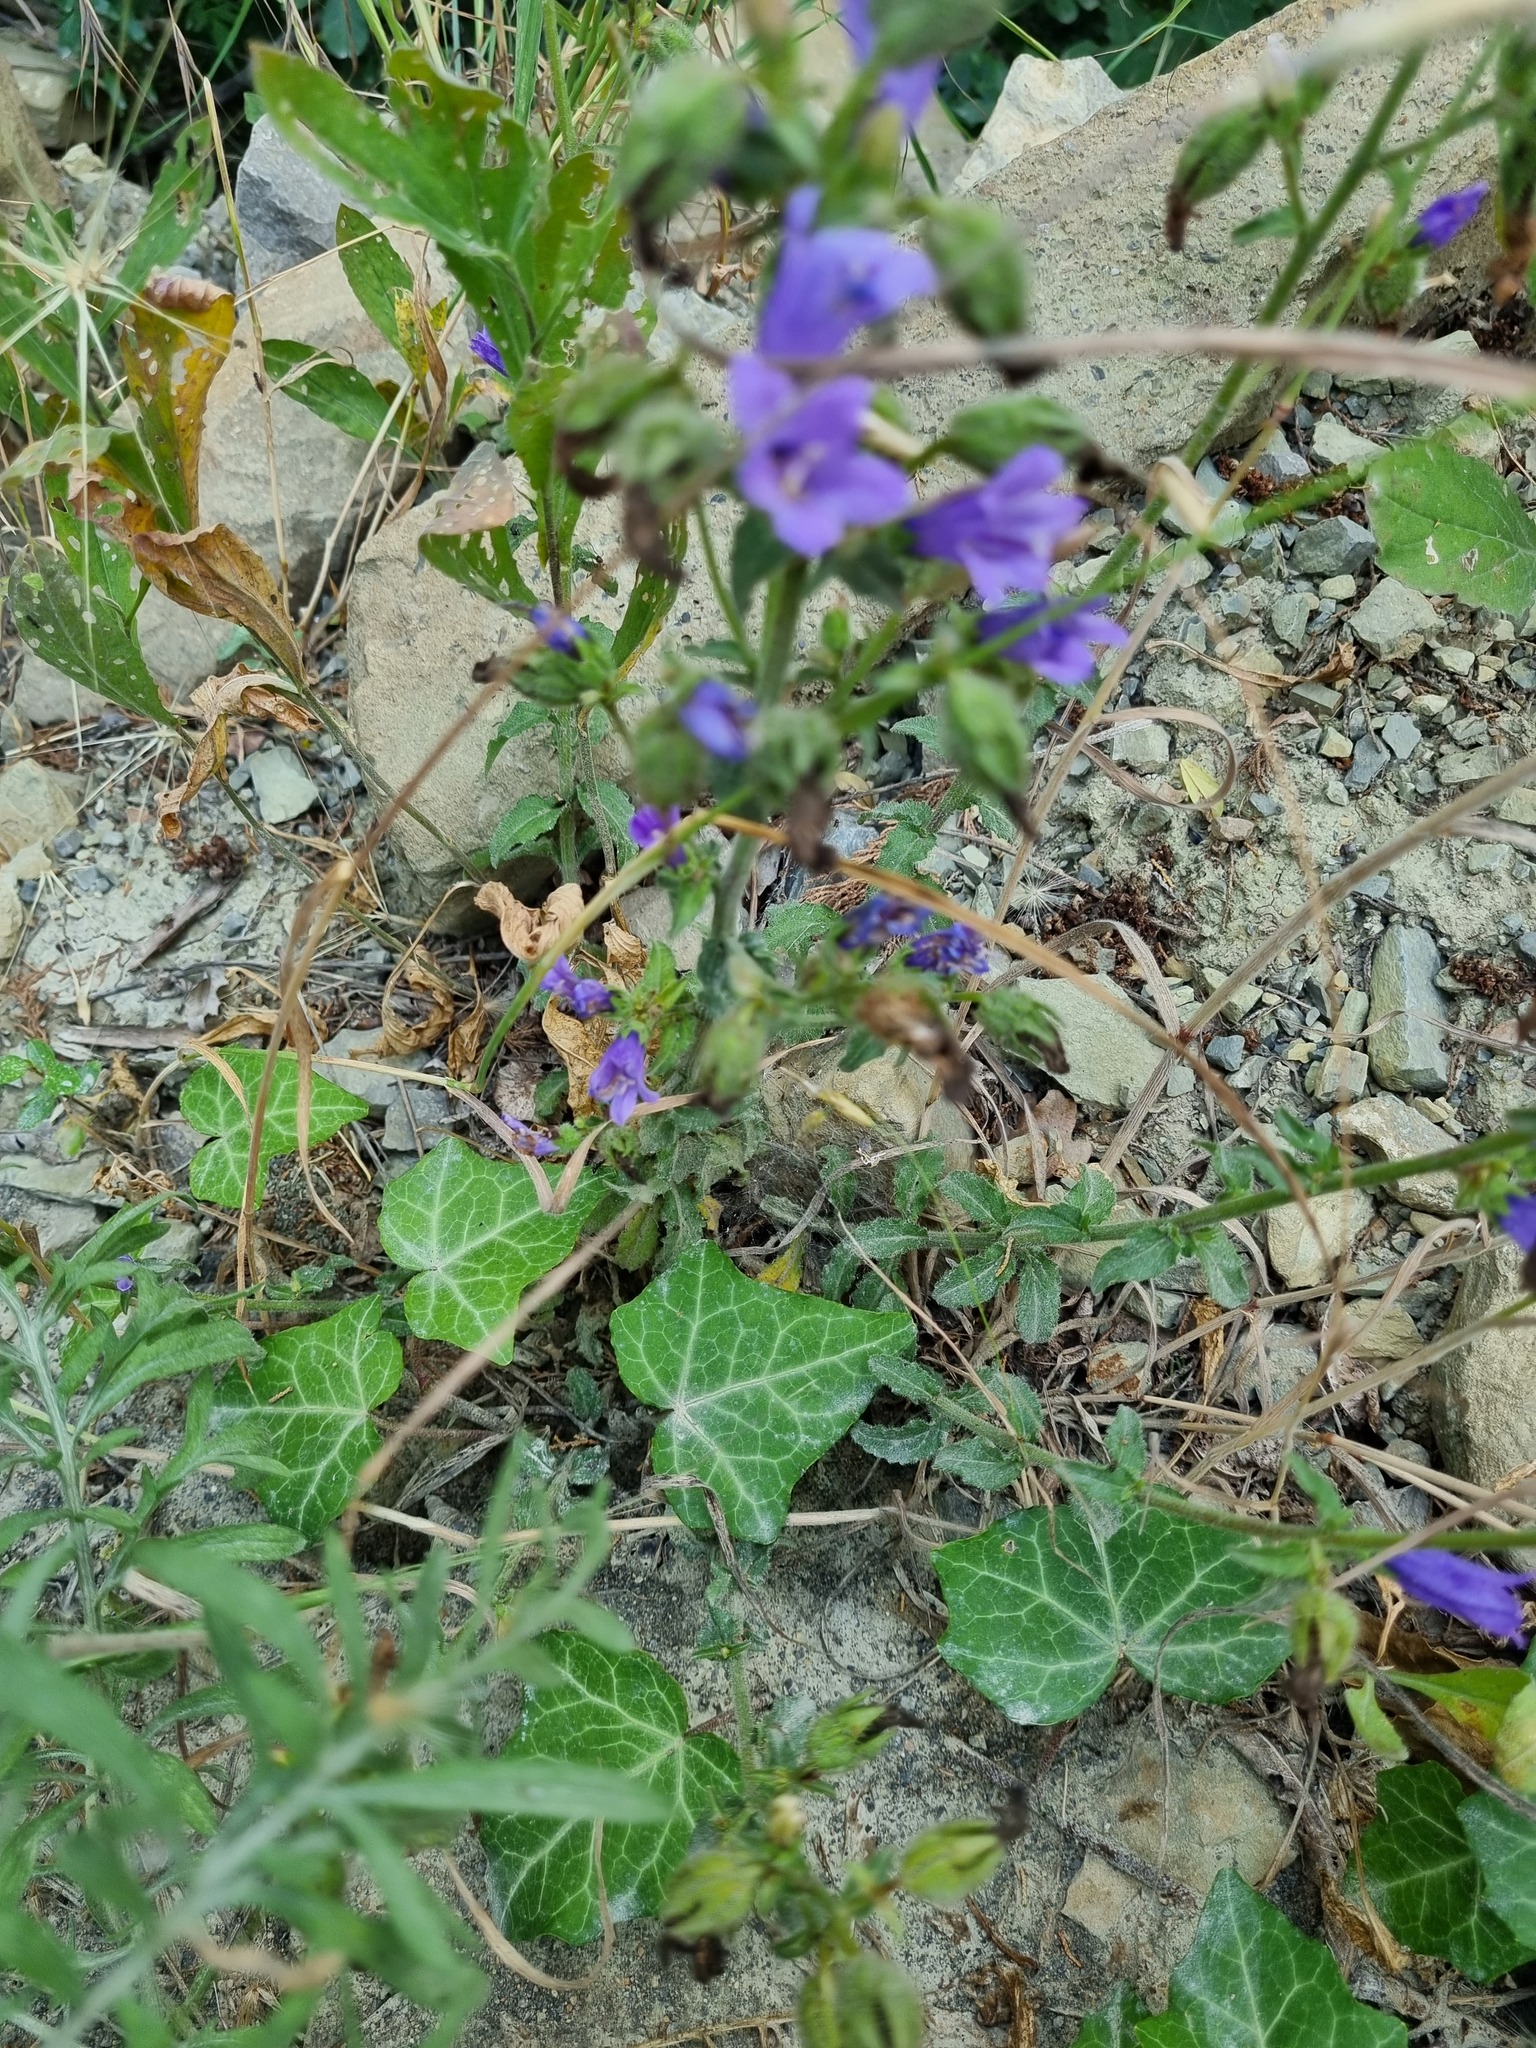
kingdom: Plantae
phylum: Tracheophyta
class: Magnoliopsida
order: Asterales
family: Campanulaceae
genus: Campanula
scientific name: Campanula komarovii
